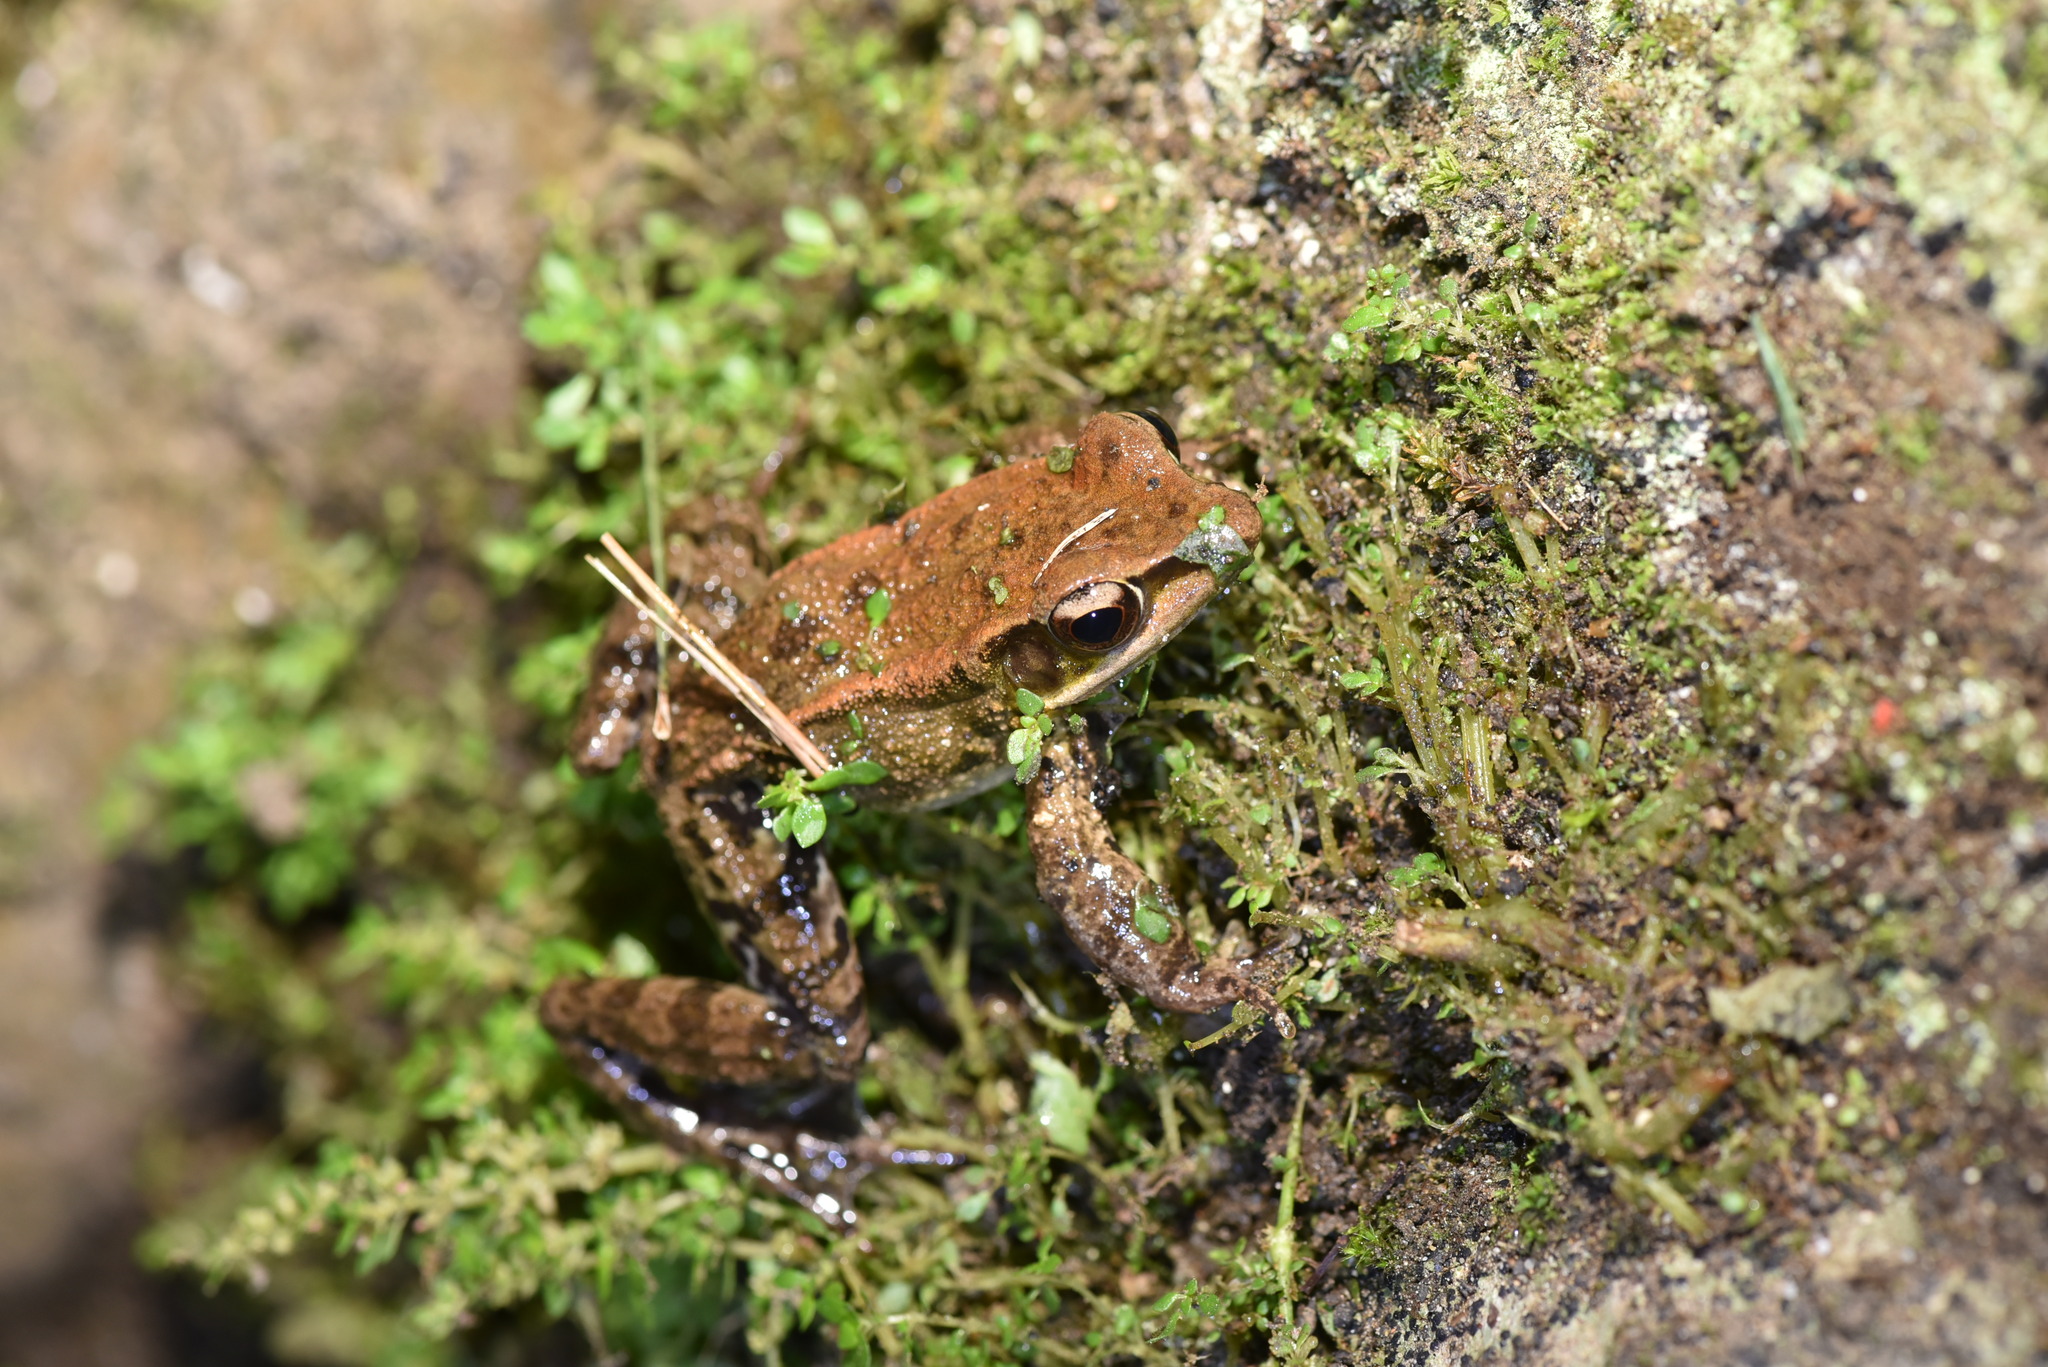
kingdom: Animalia
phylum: Chordata
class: Amphibia
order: Anura
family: Ranidae
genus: Hylarana
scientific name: Hylarana latouchii
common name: Broad-folded frog
